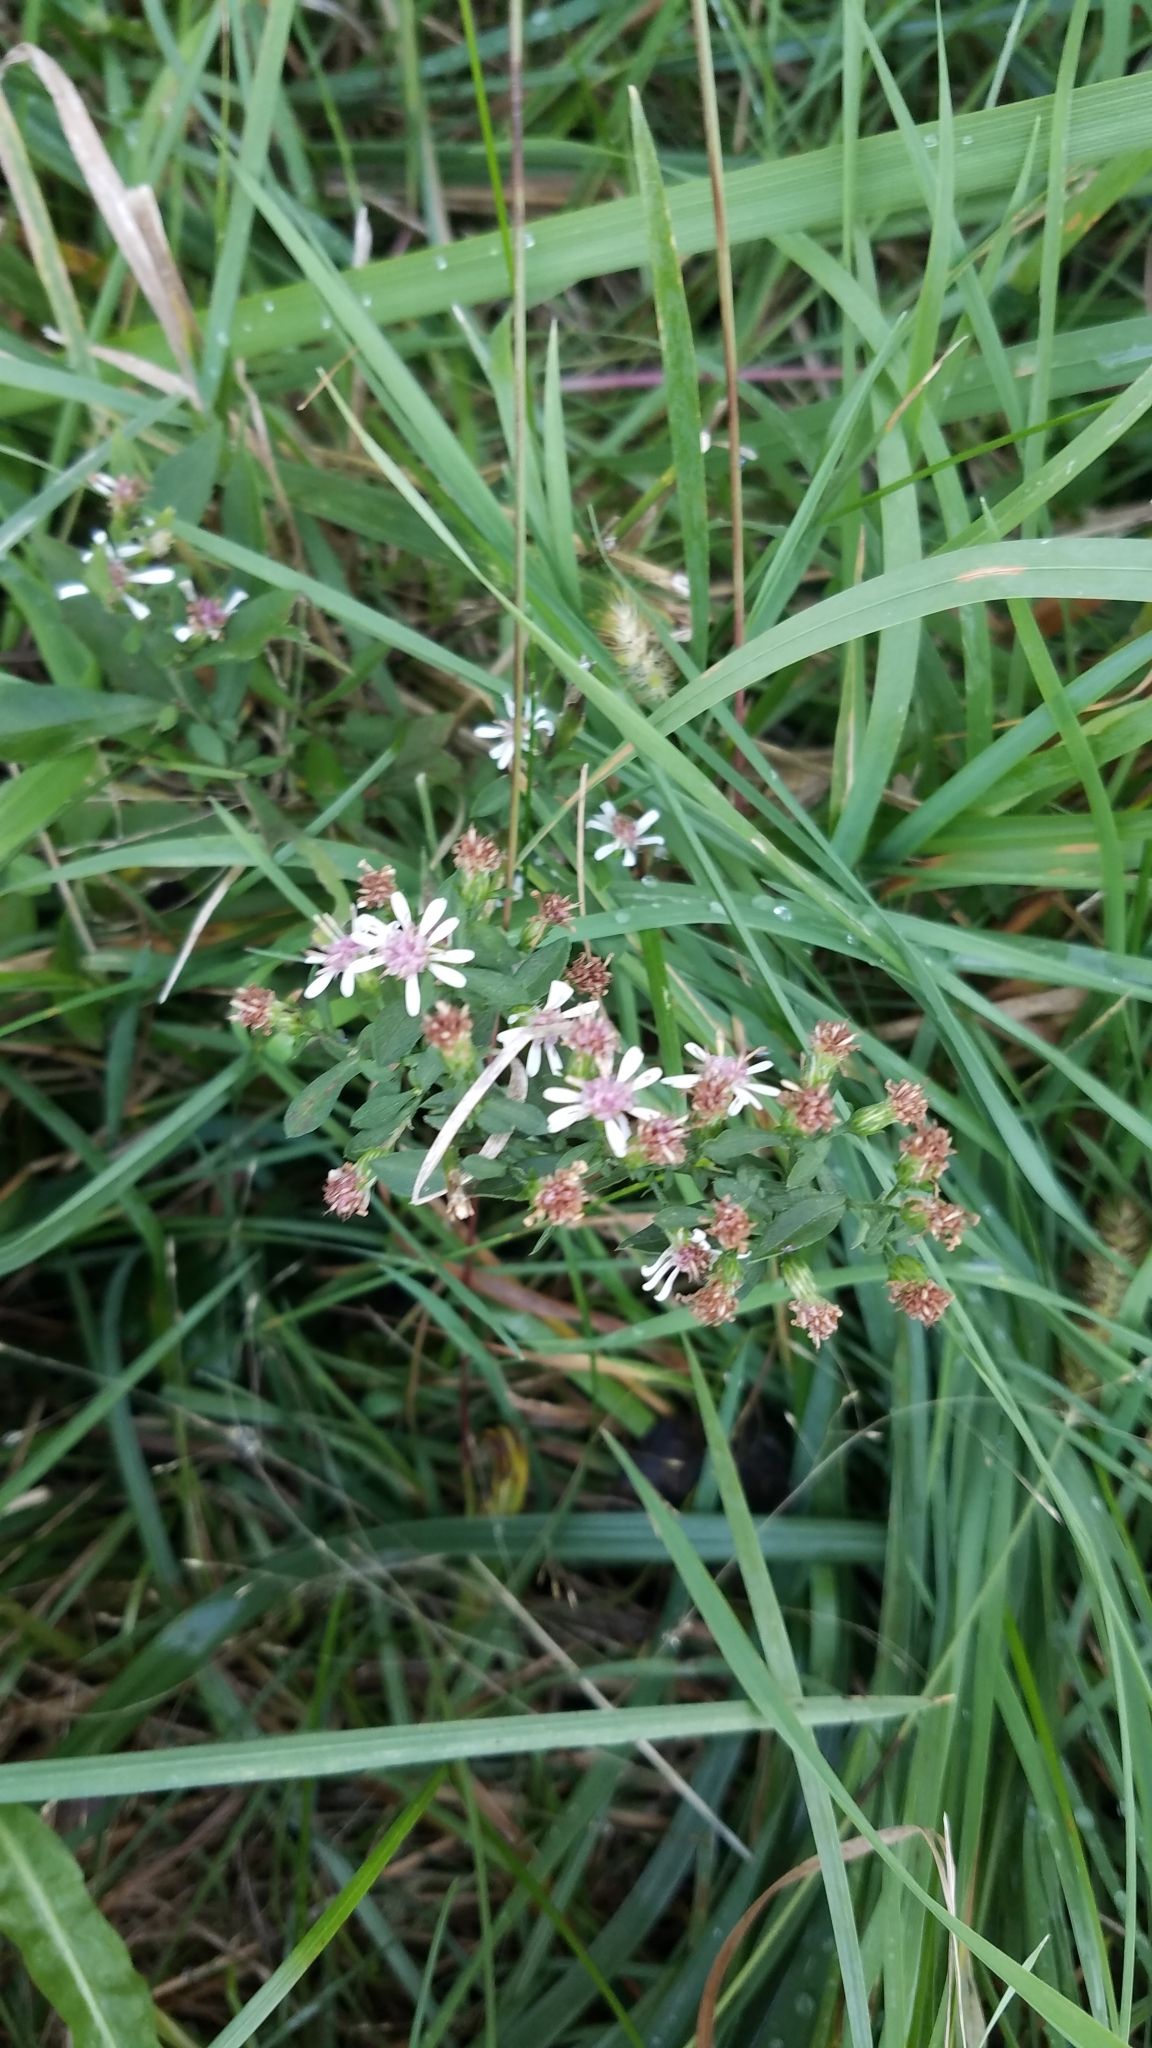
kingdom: Plantae
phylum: Tracheophyta
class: Magnoliopsida
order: Asterales
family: Asteraceae
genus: Symphyotrichum
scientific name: Symphyotrichum lateriflorum
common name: Calico aster
